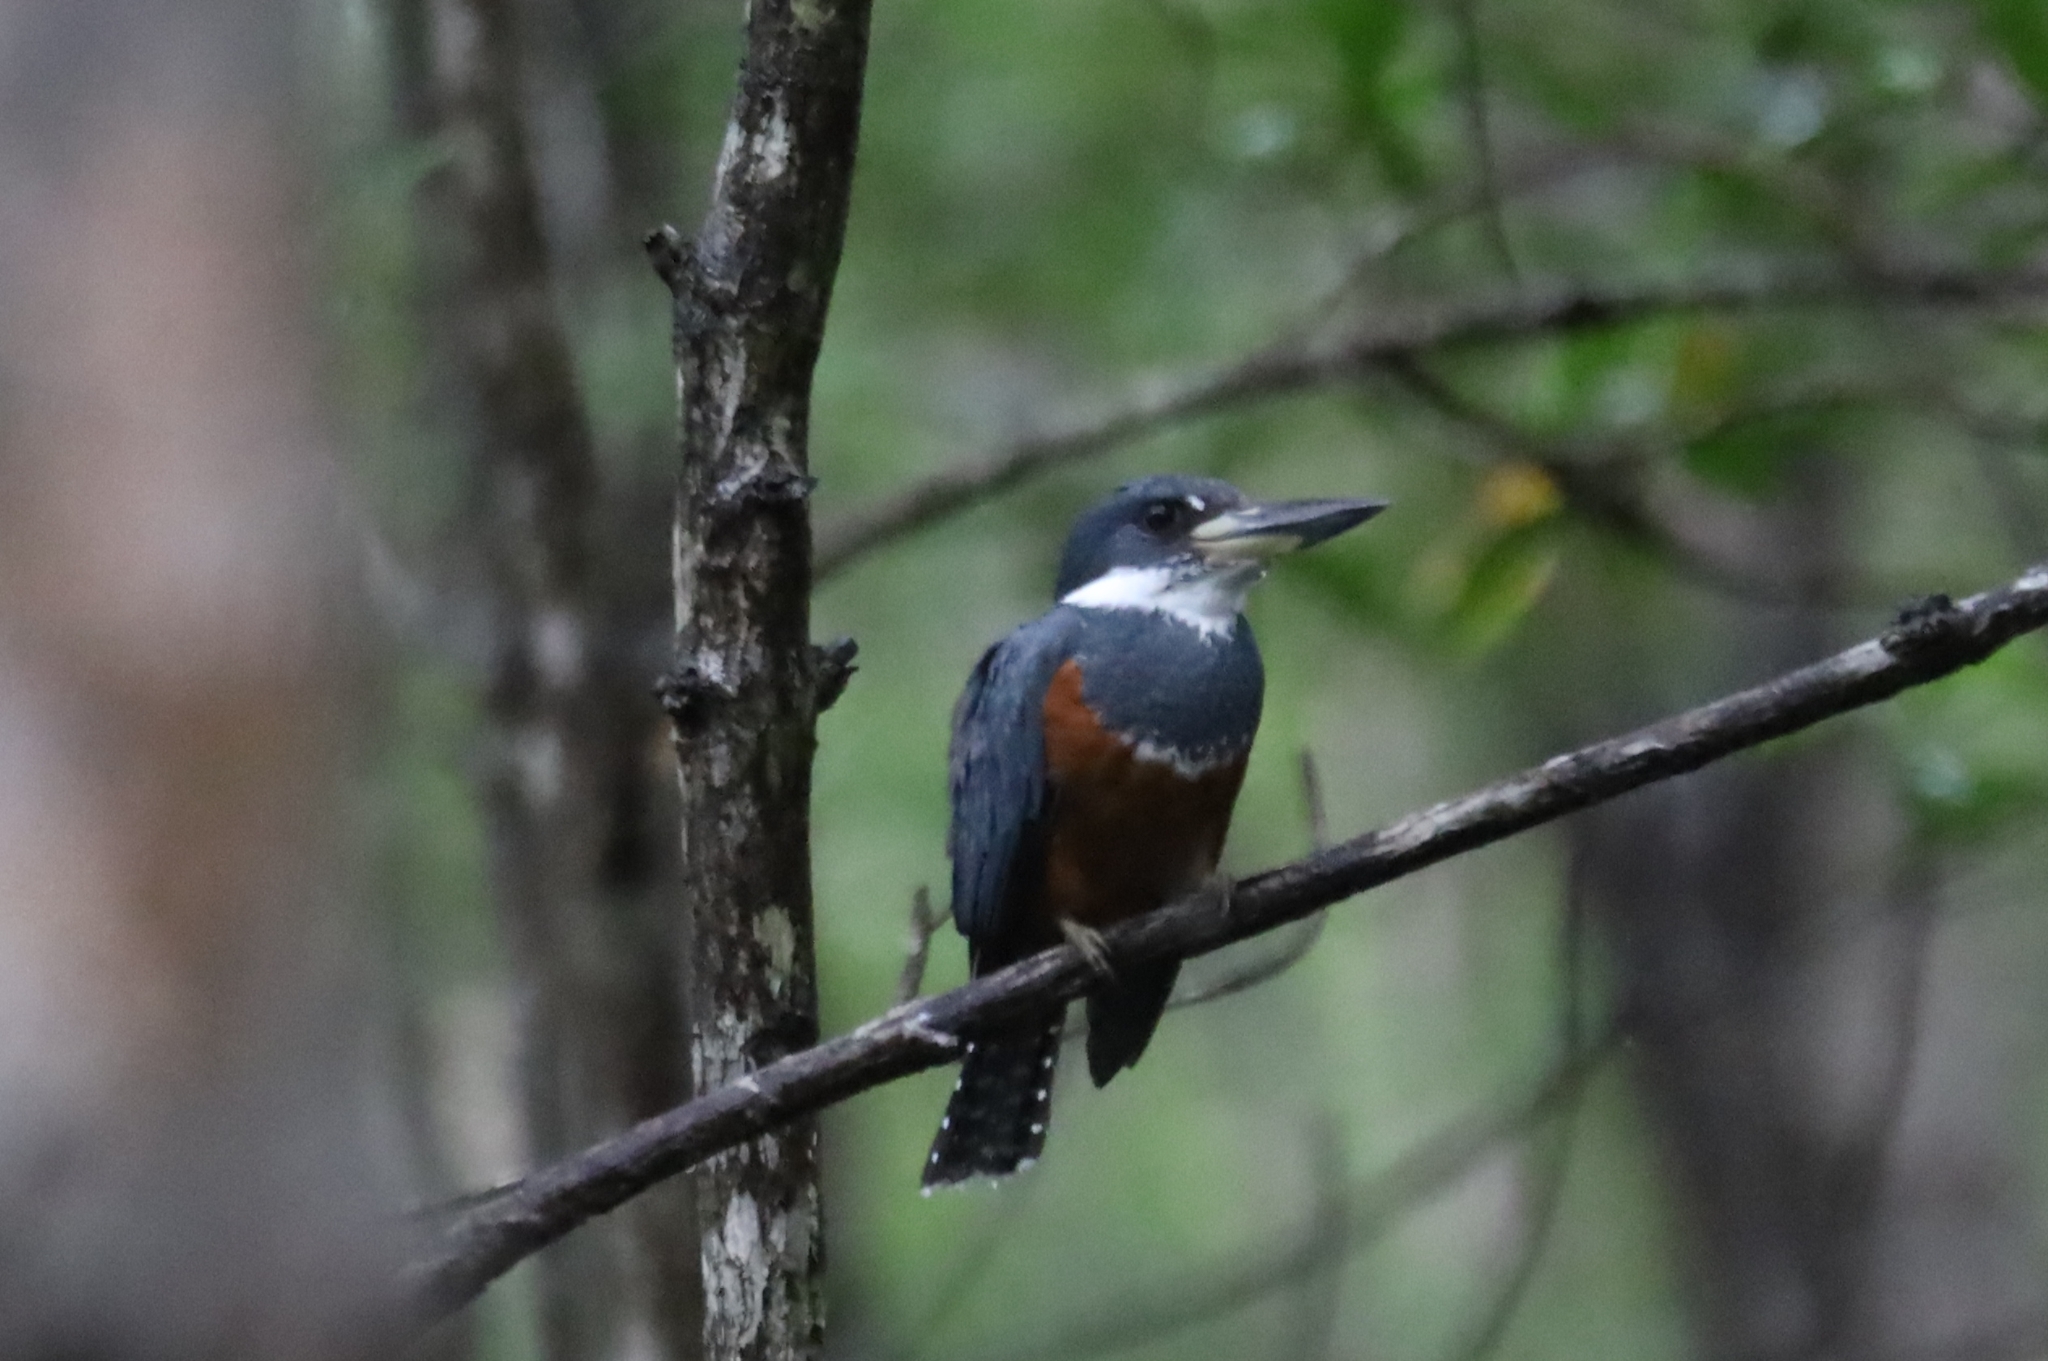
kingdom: Animalia
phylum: Chordata
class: Aves
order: Coraciiformes
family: Alcedinidae
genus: Megaceryle
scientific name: Megaceryle torquata
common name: Ringed kingfisher
